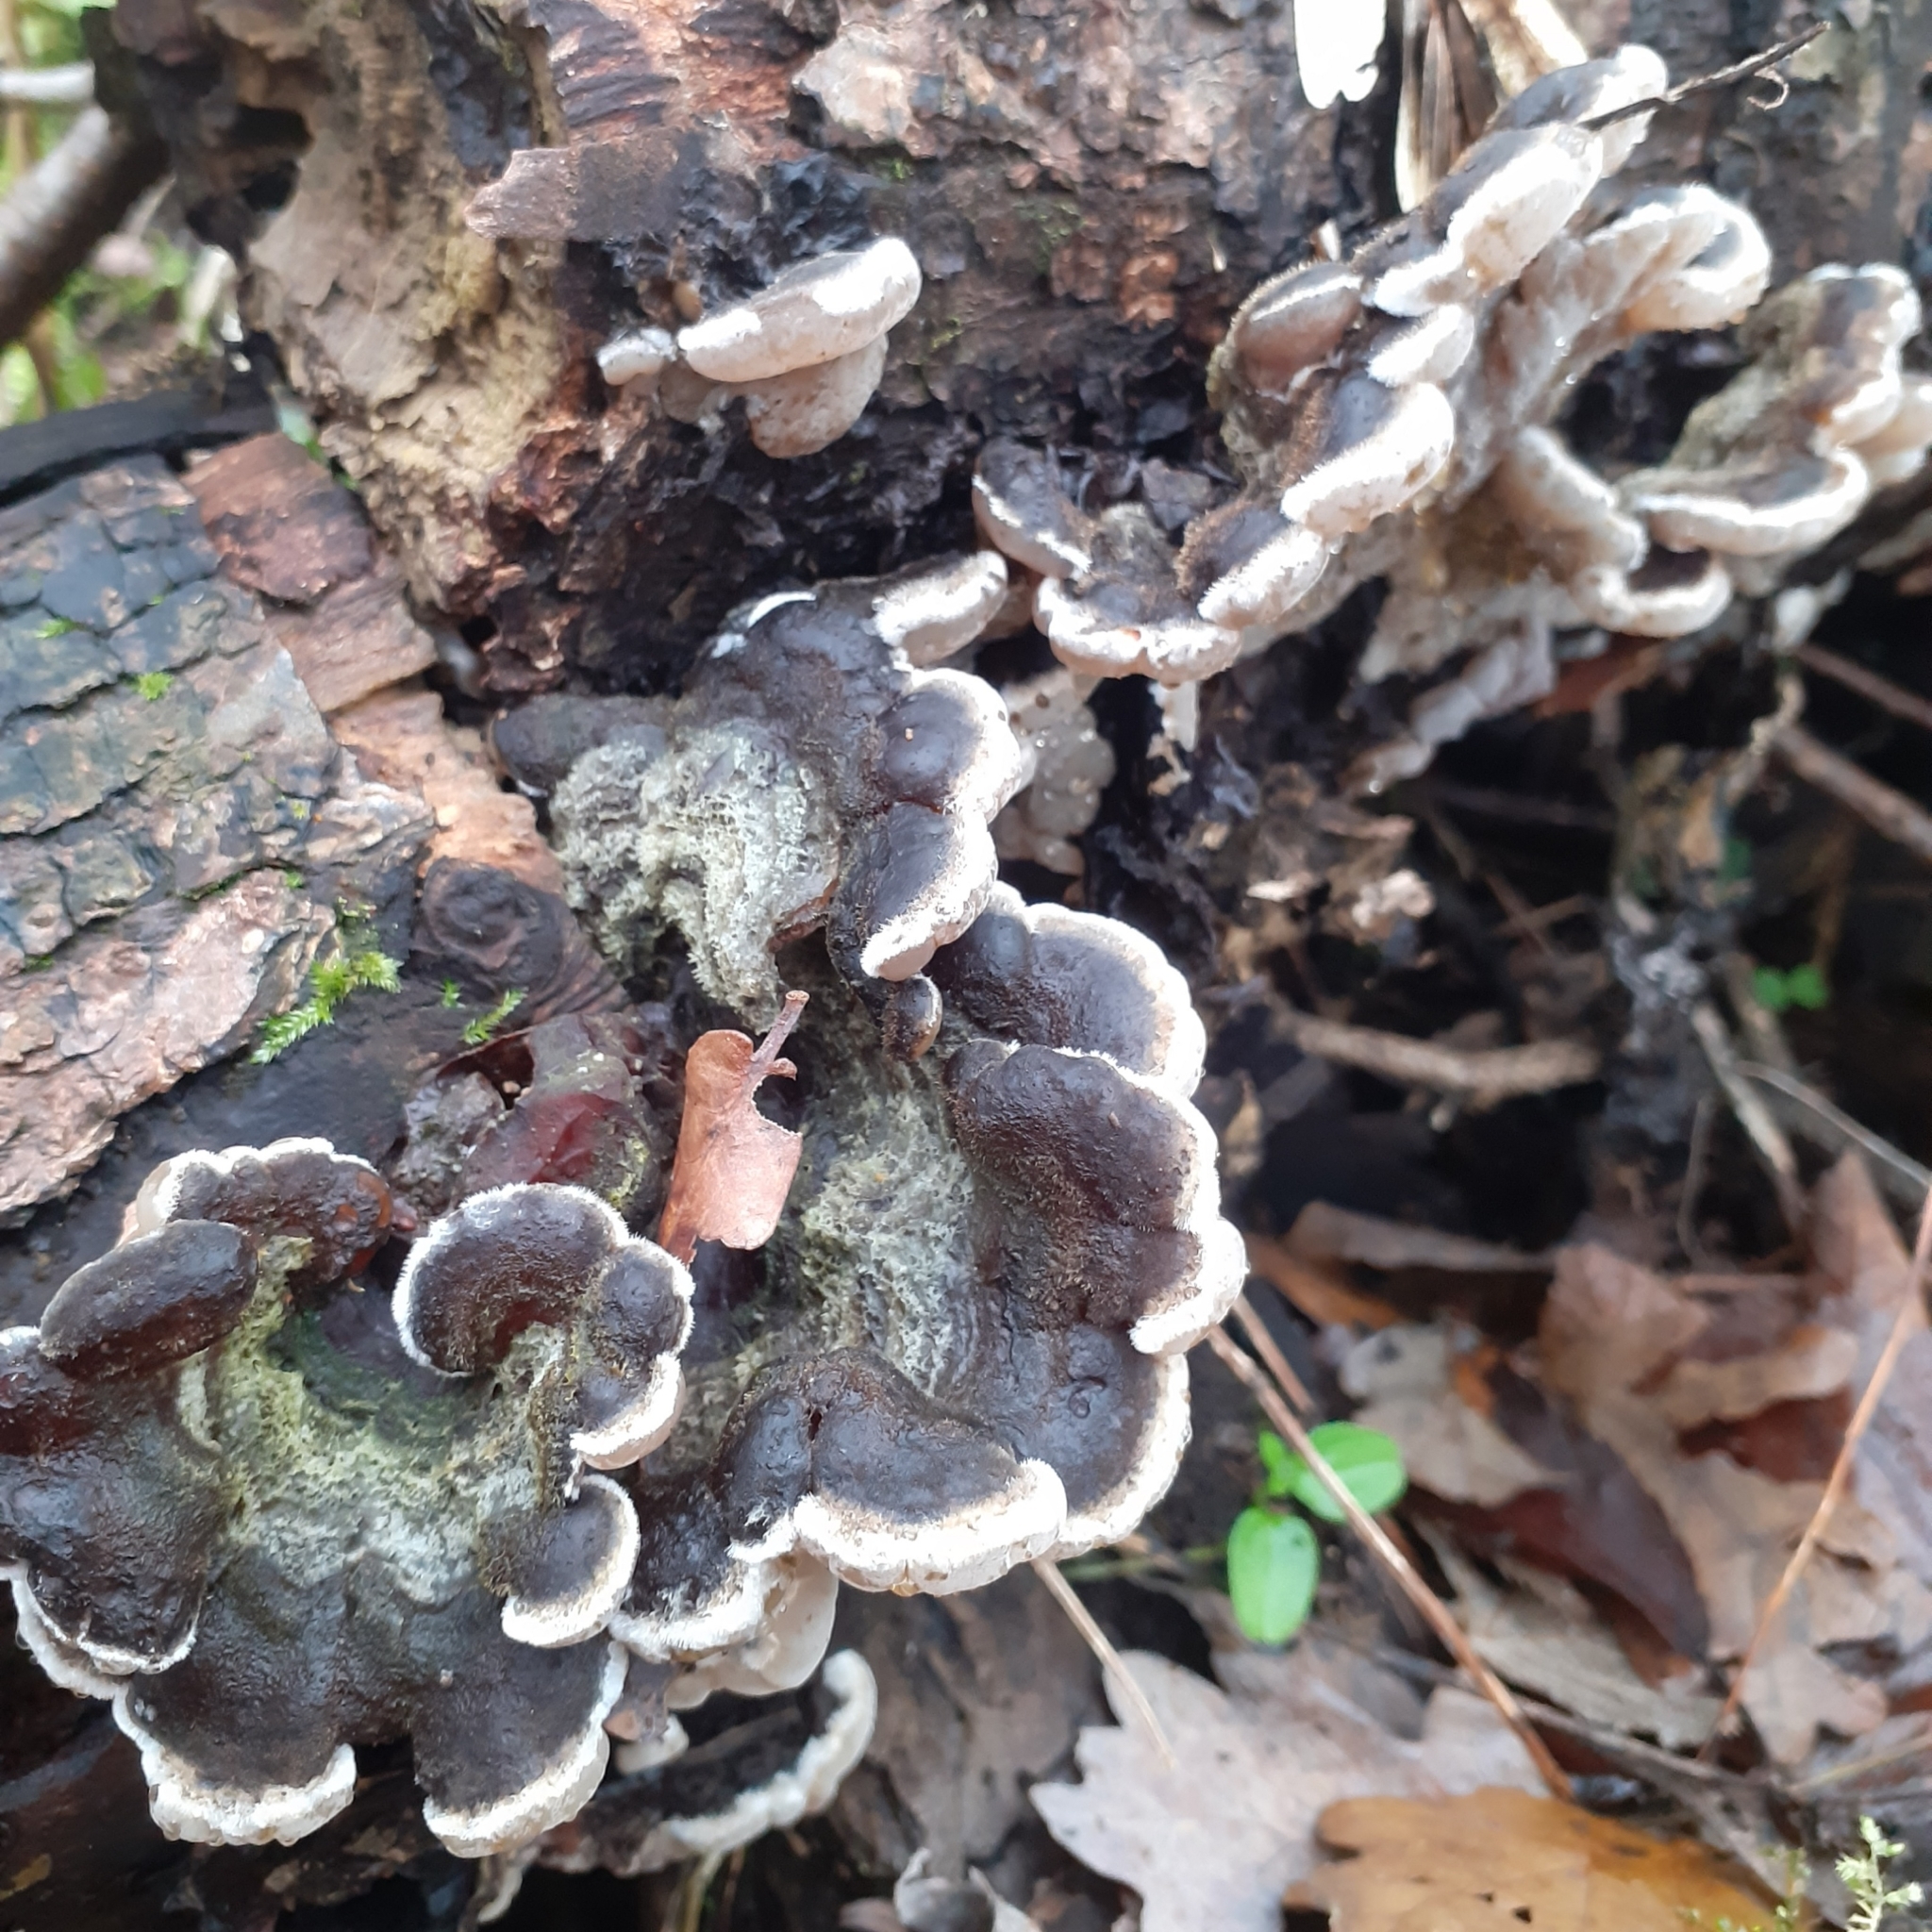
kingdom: Fungi
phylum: Basidiomycota
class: Agaricomycetes
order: Auriculariales
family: Auriculariaceae
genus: Auricularia
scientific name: Auricularia mesenterica
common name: Tripe fungus
